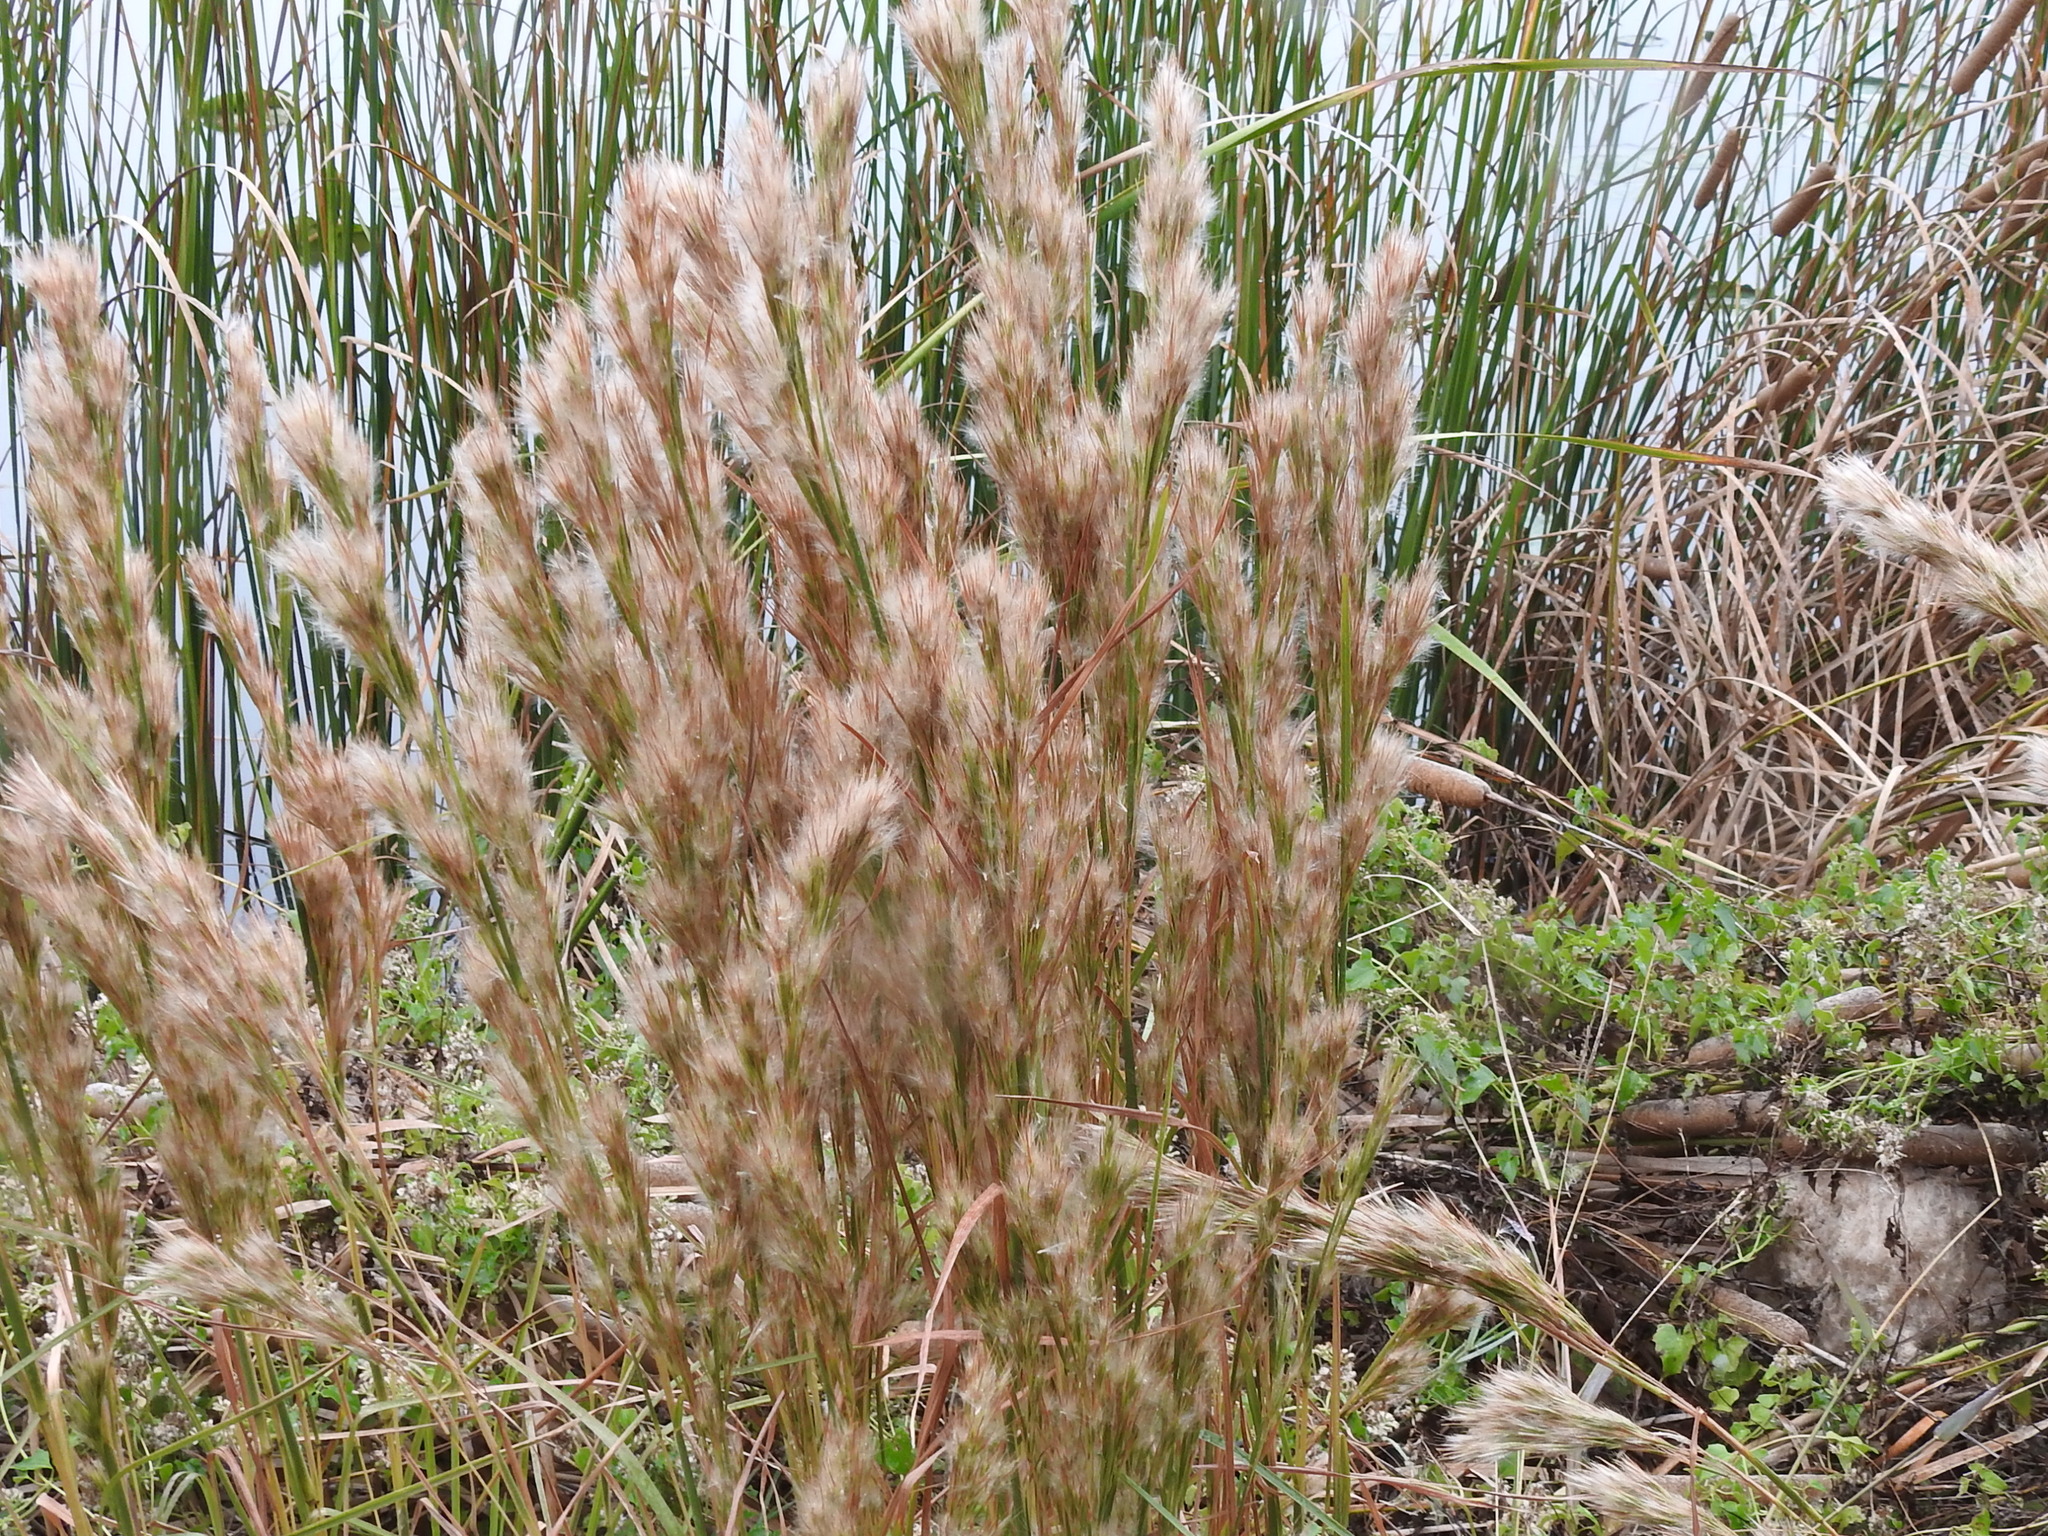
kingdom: Plantae
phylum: Tracheophyta
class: Liliopsida
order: Poales
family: Poaceae
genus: Andropogon
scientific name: Andropogon tenuispatheus
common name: Bushy bluestem
